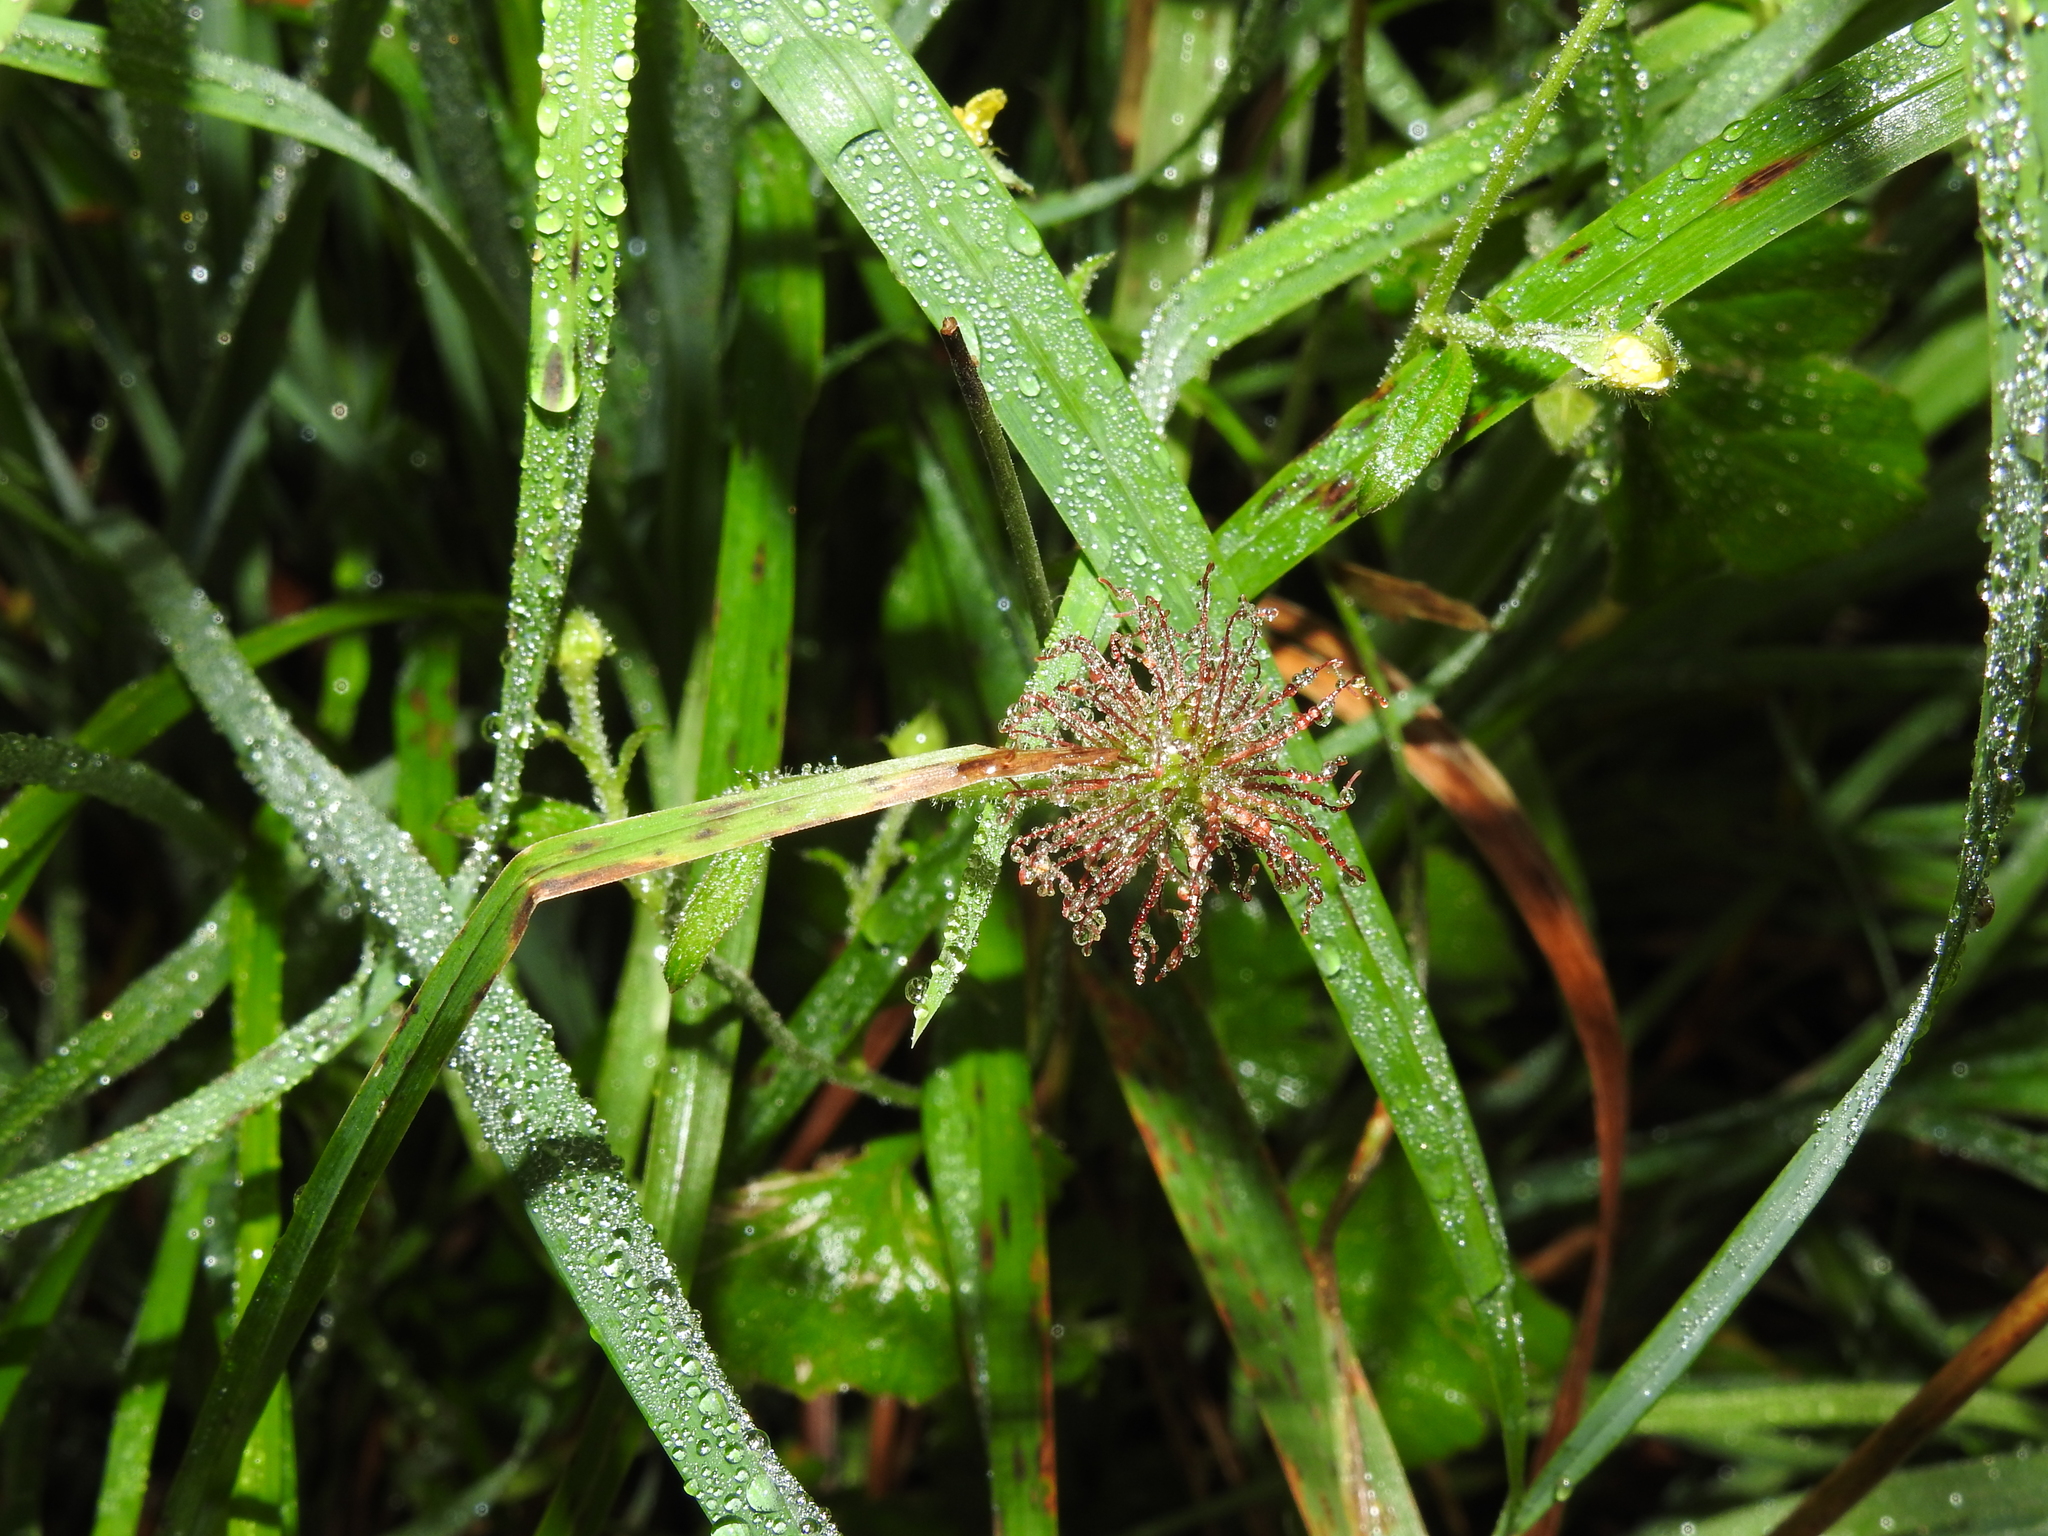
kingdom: Plantae
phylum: Tracheophyta
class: Magnoliopsida
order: Rosales
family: Rosaceae
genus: Geum
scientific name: Geum urbanum
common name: Wood avens
